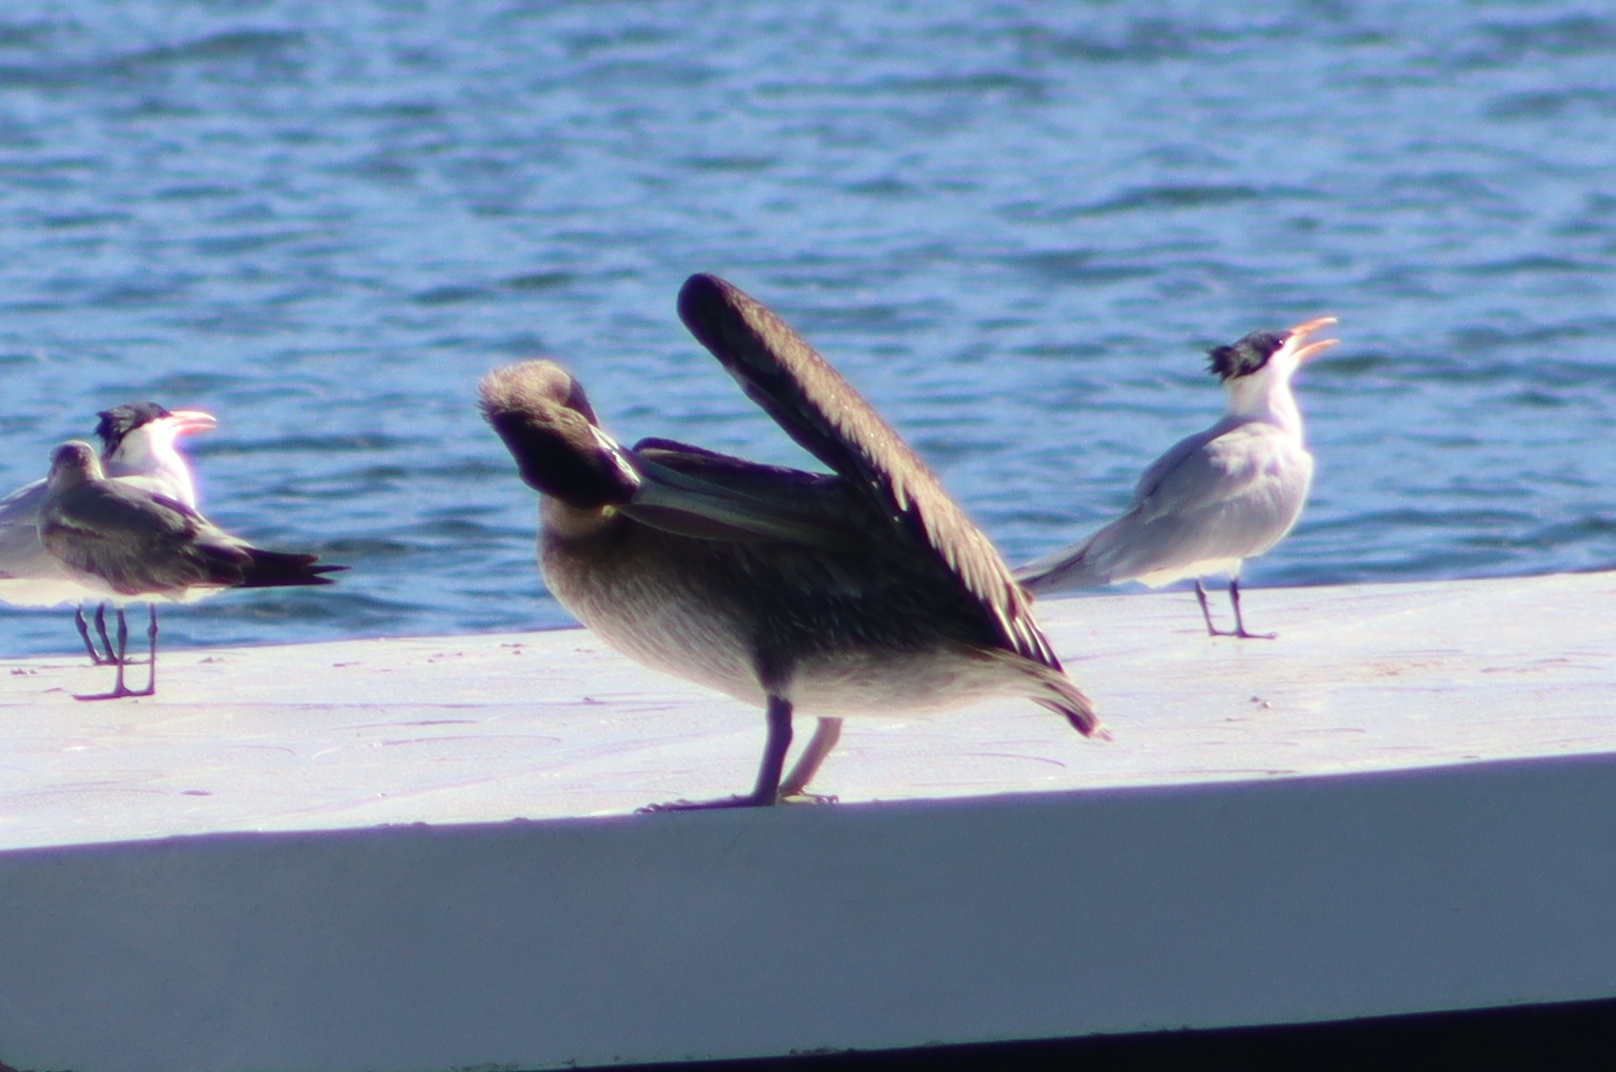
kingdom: Animalia
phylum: Chordata
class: Aves
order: Pelecaniformes
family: Pelecanidae
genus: Pelecanus
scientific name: Pelecanus occidentalis
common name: Brown pelican
